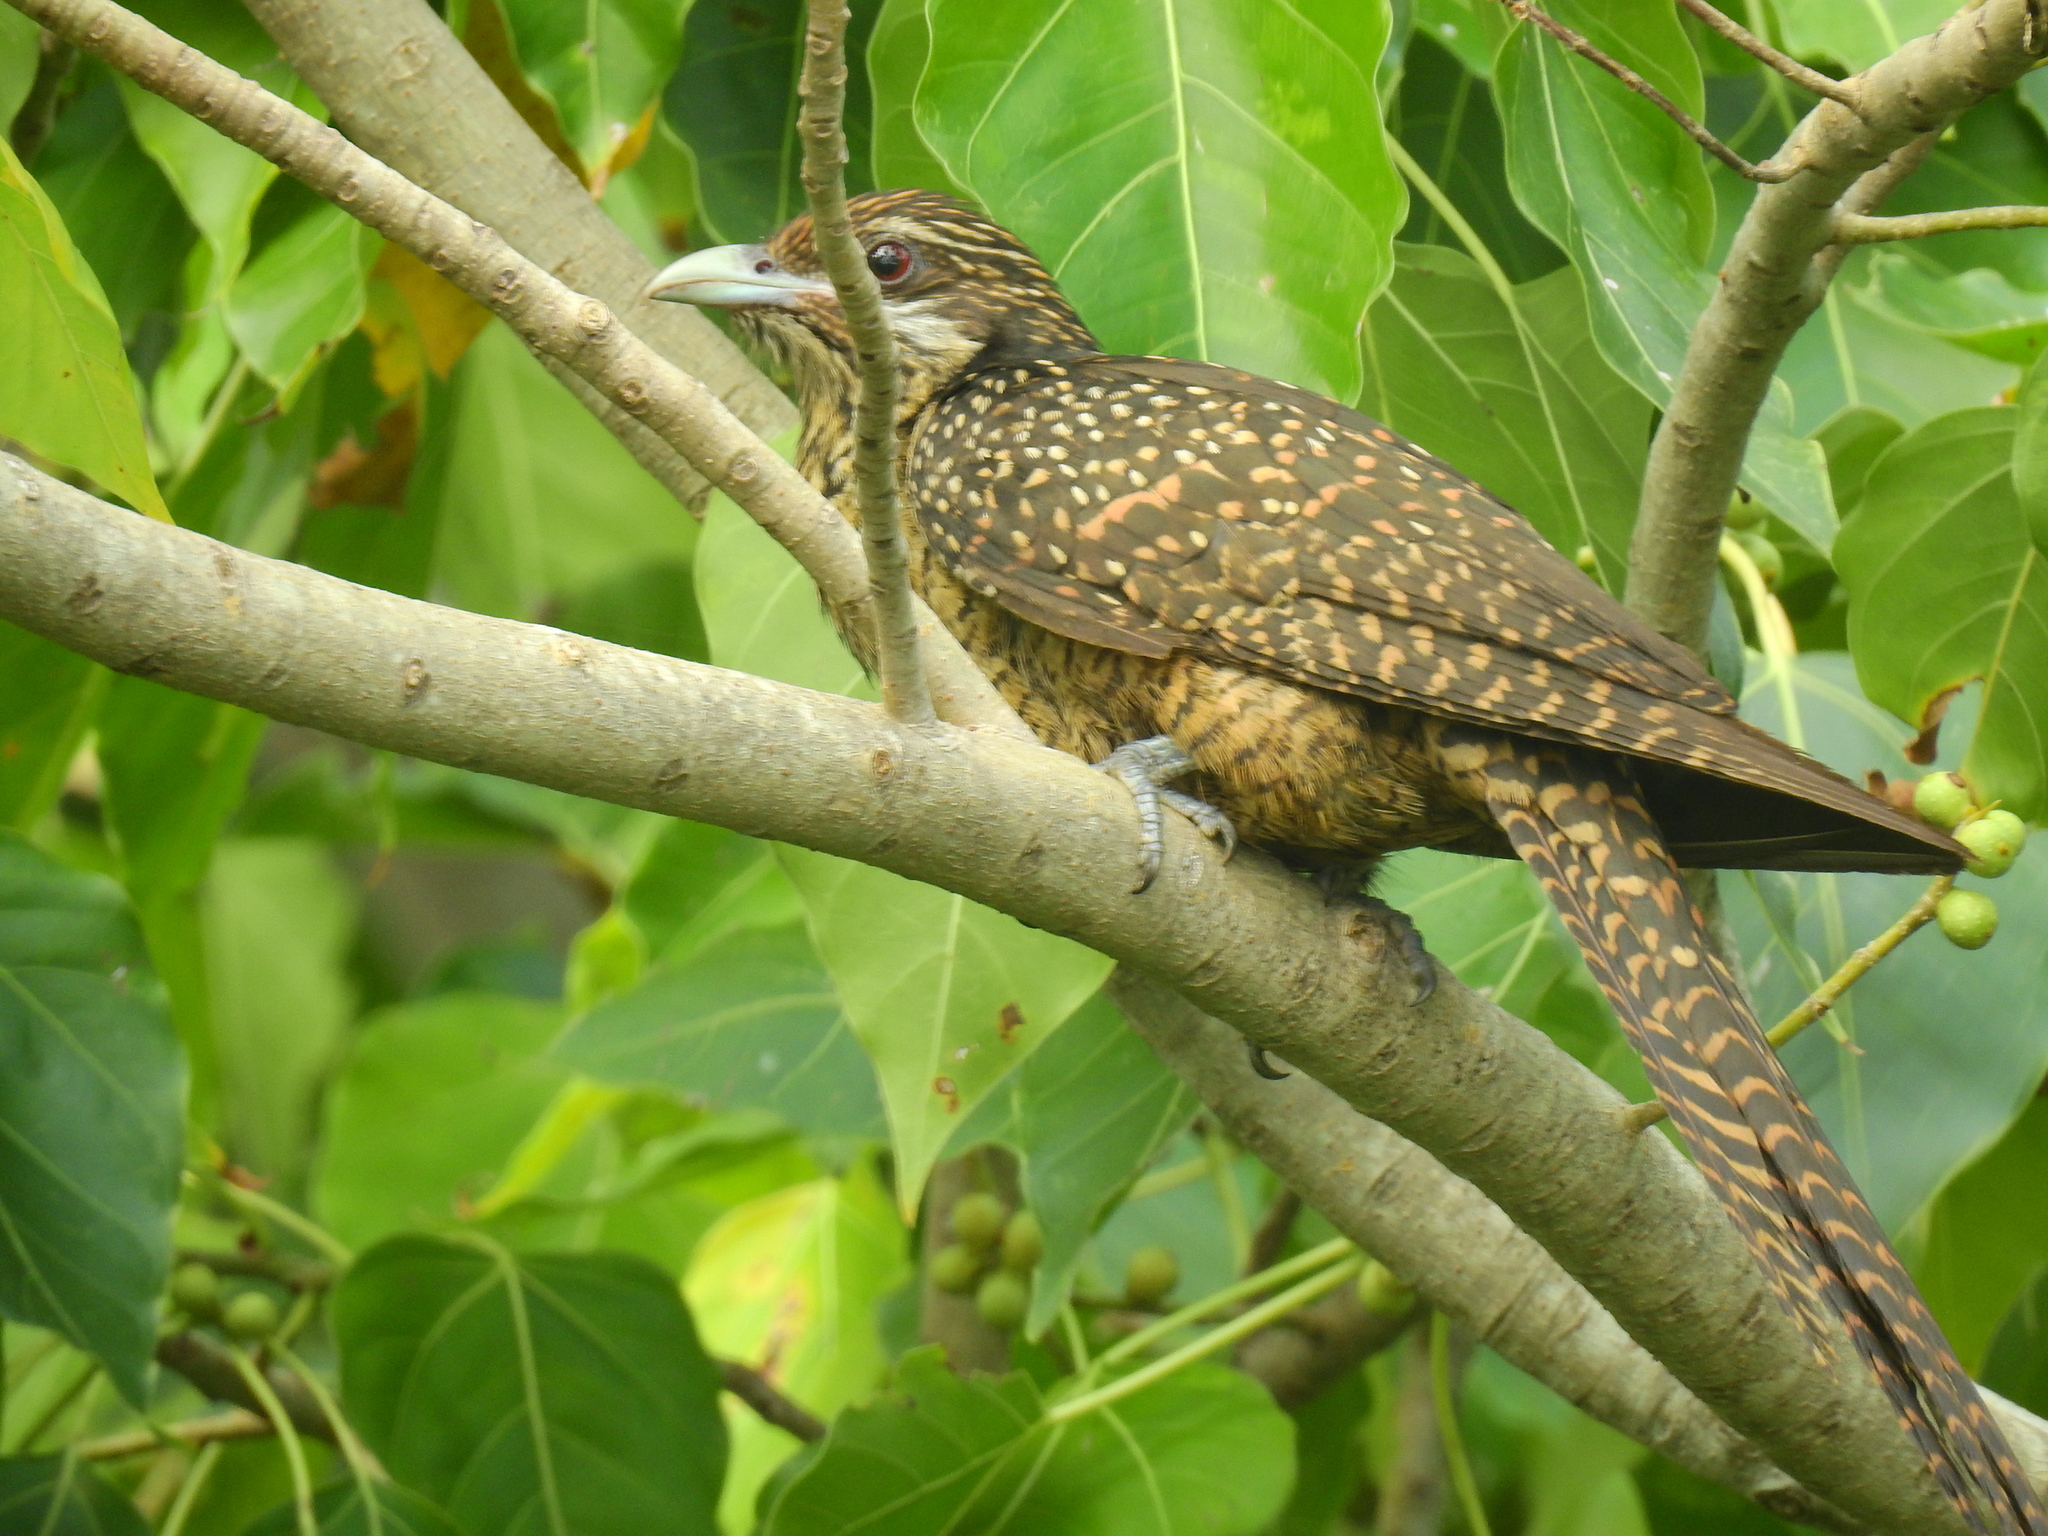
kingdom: Animalia
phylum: Chordata
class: Aves
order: Cuculiformes
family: Cuculidae
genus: Eudynamys
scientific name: Eudynamys scolopaceus
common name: Asian koel
